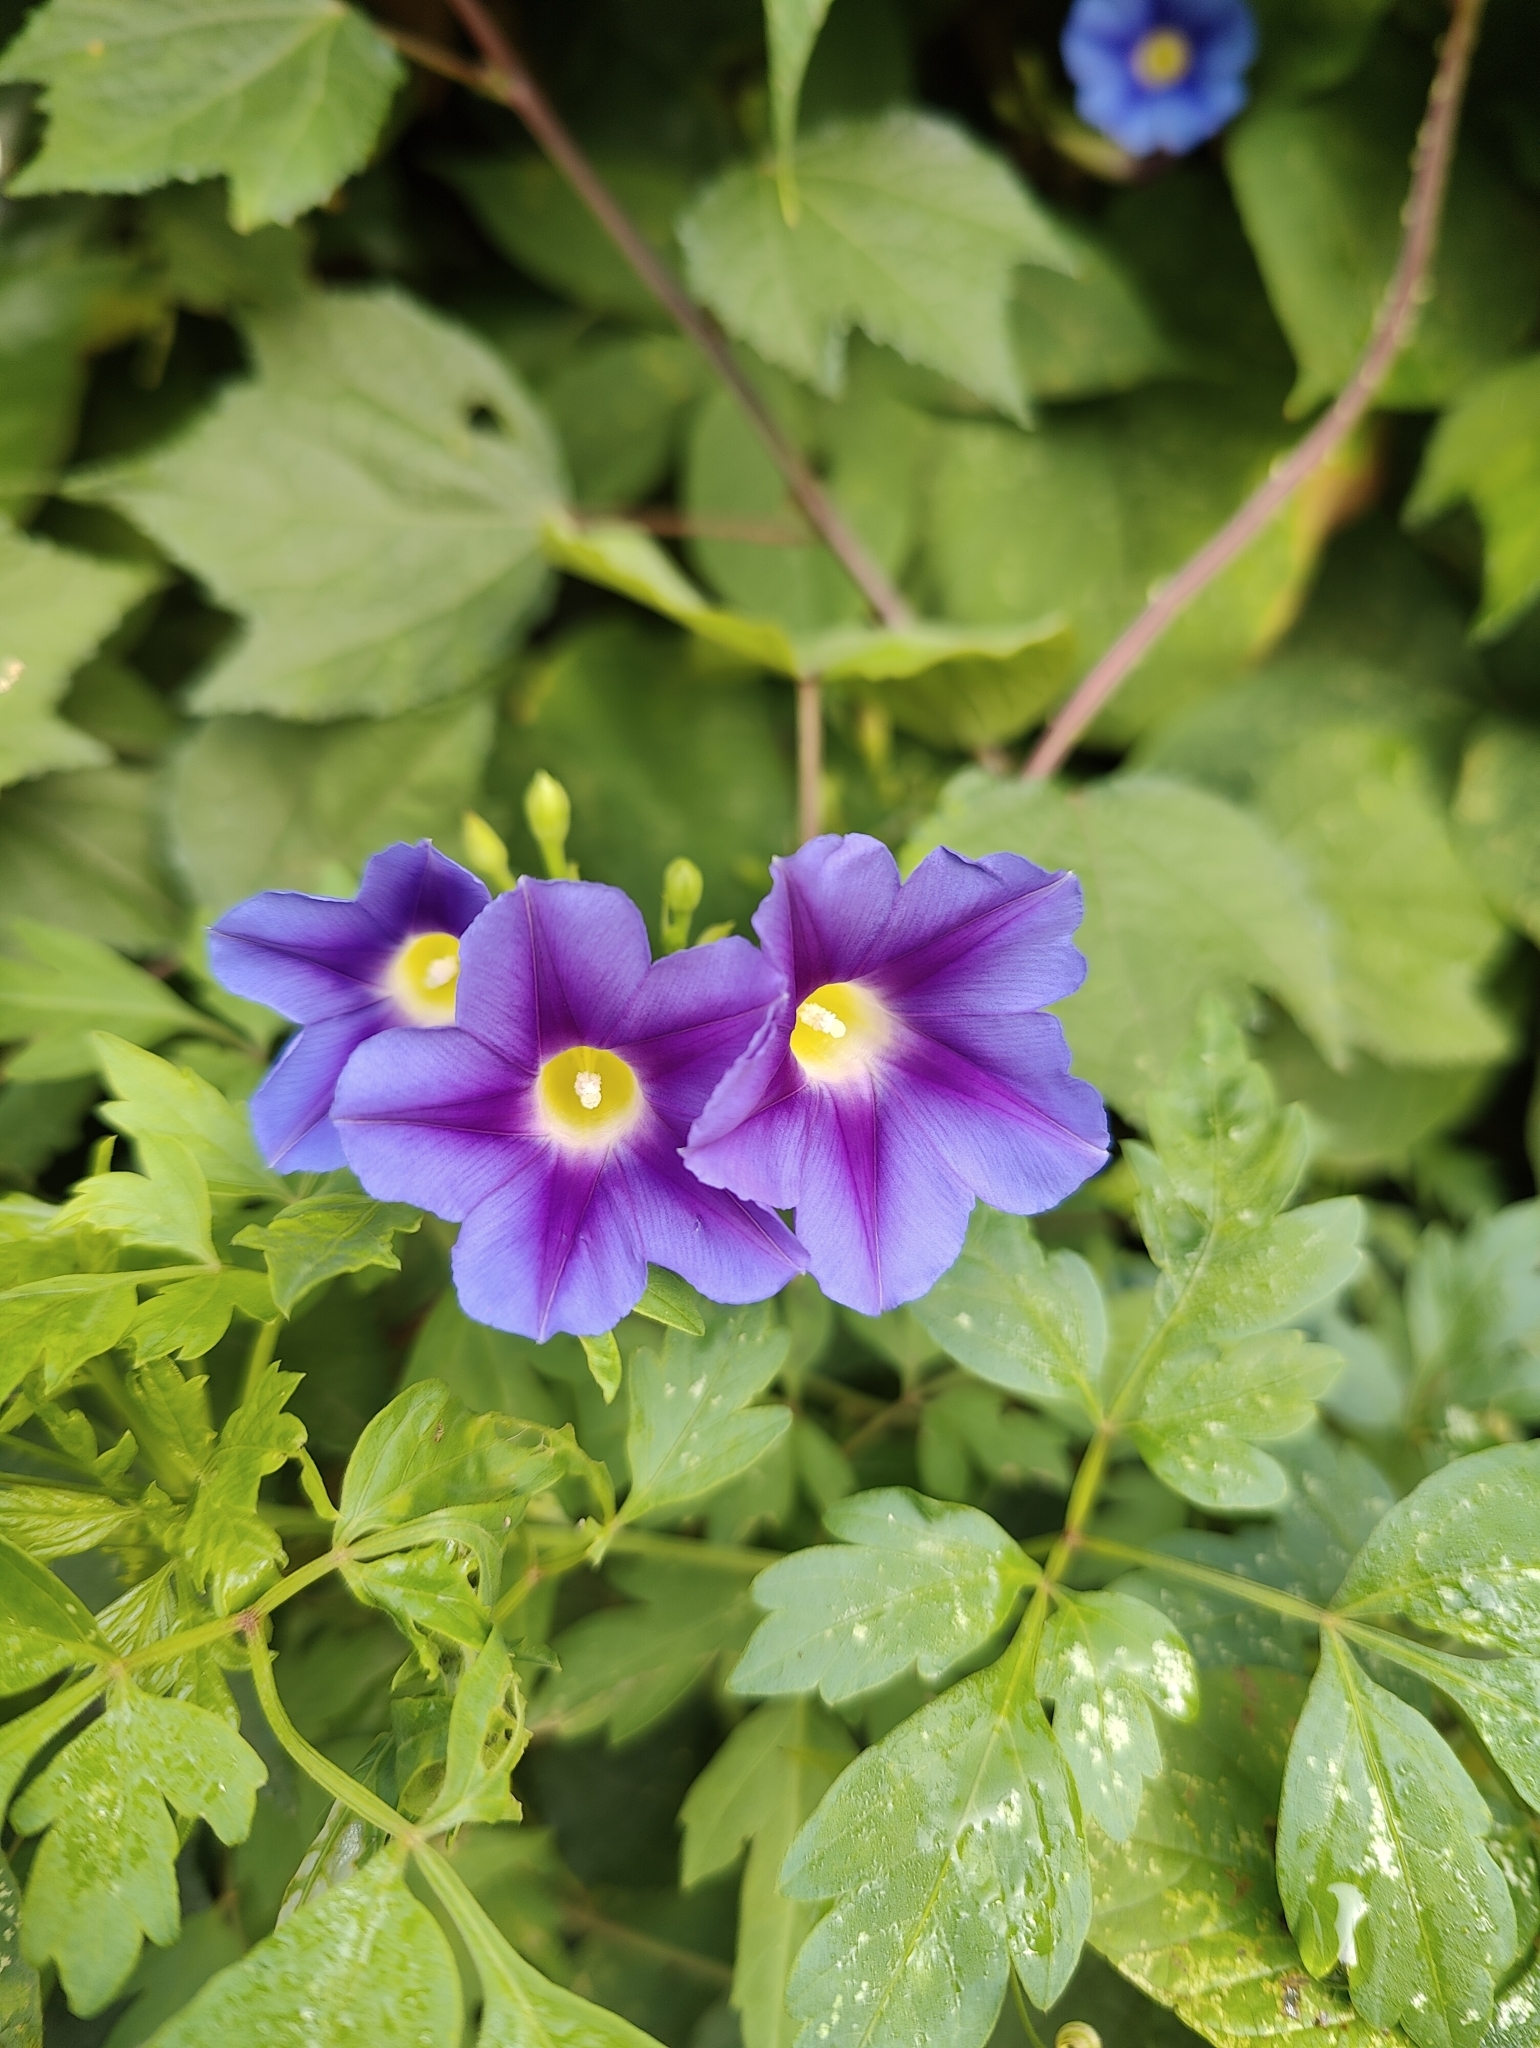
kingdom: Plantae
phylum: Tracheophyta
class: Magnoliopsida
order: Solanales
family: Convolvulaceae
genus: Ipomoea
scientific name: Ipomoea parasitica
